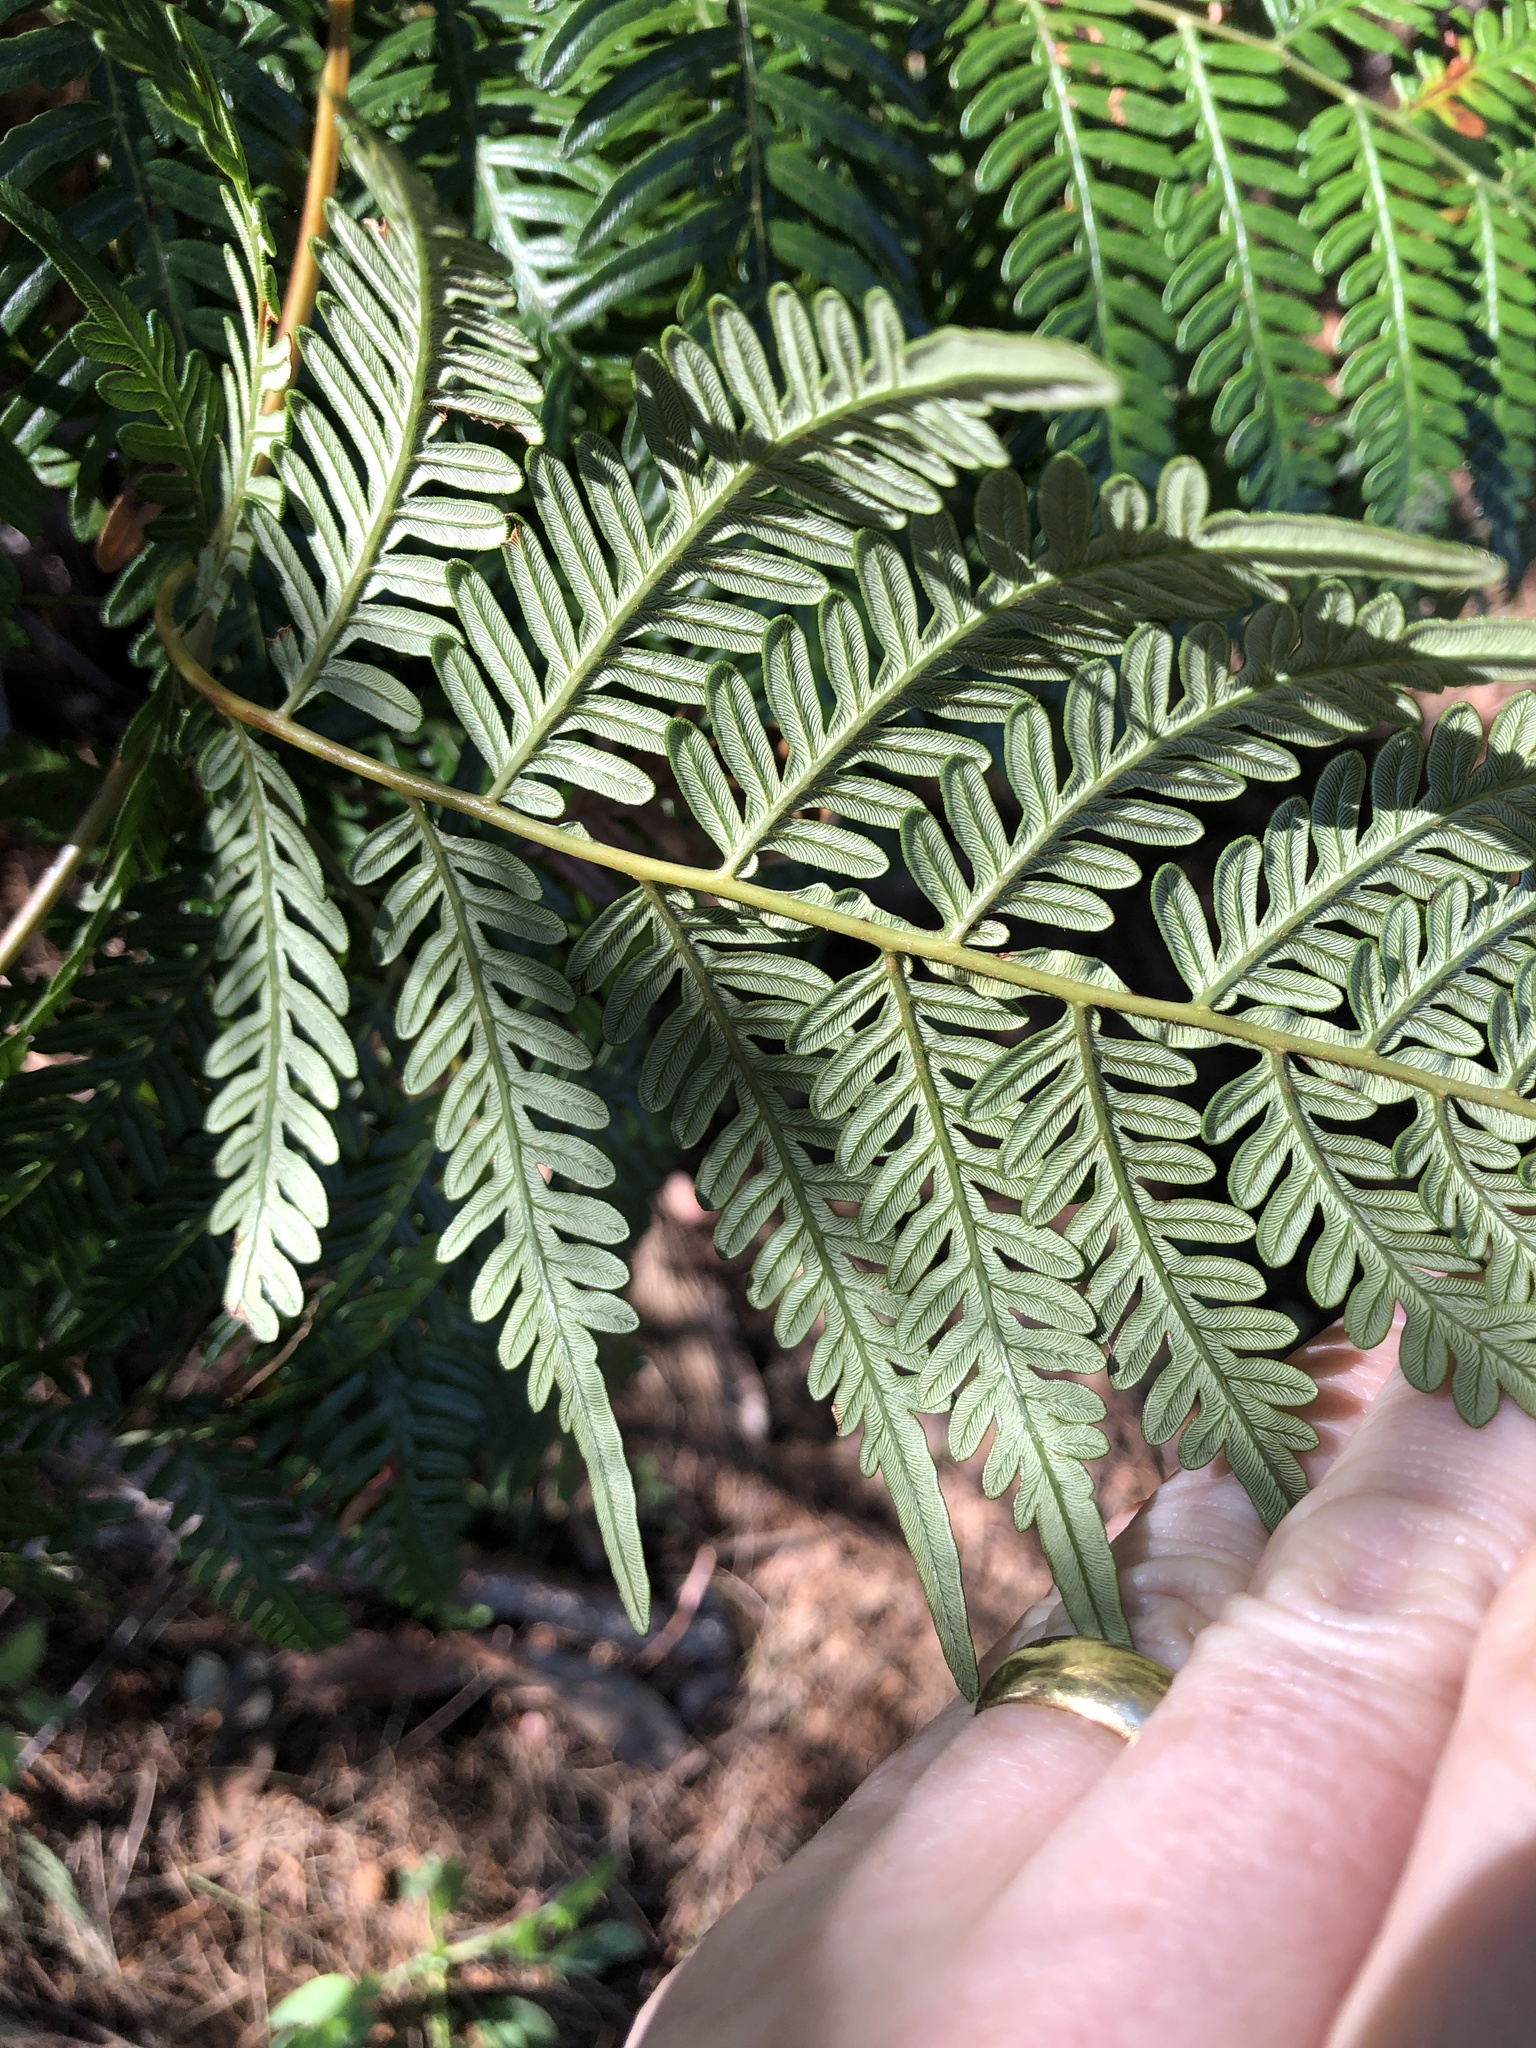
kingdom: Plantae
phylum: Tracheophyta
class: Polypodiopsida
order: Polypodiales
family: Dennstaedtiaceae
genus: Pteridium
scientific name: Pteridium esculentum
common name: Bracken fern
